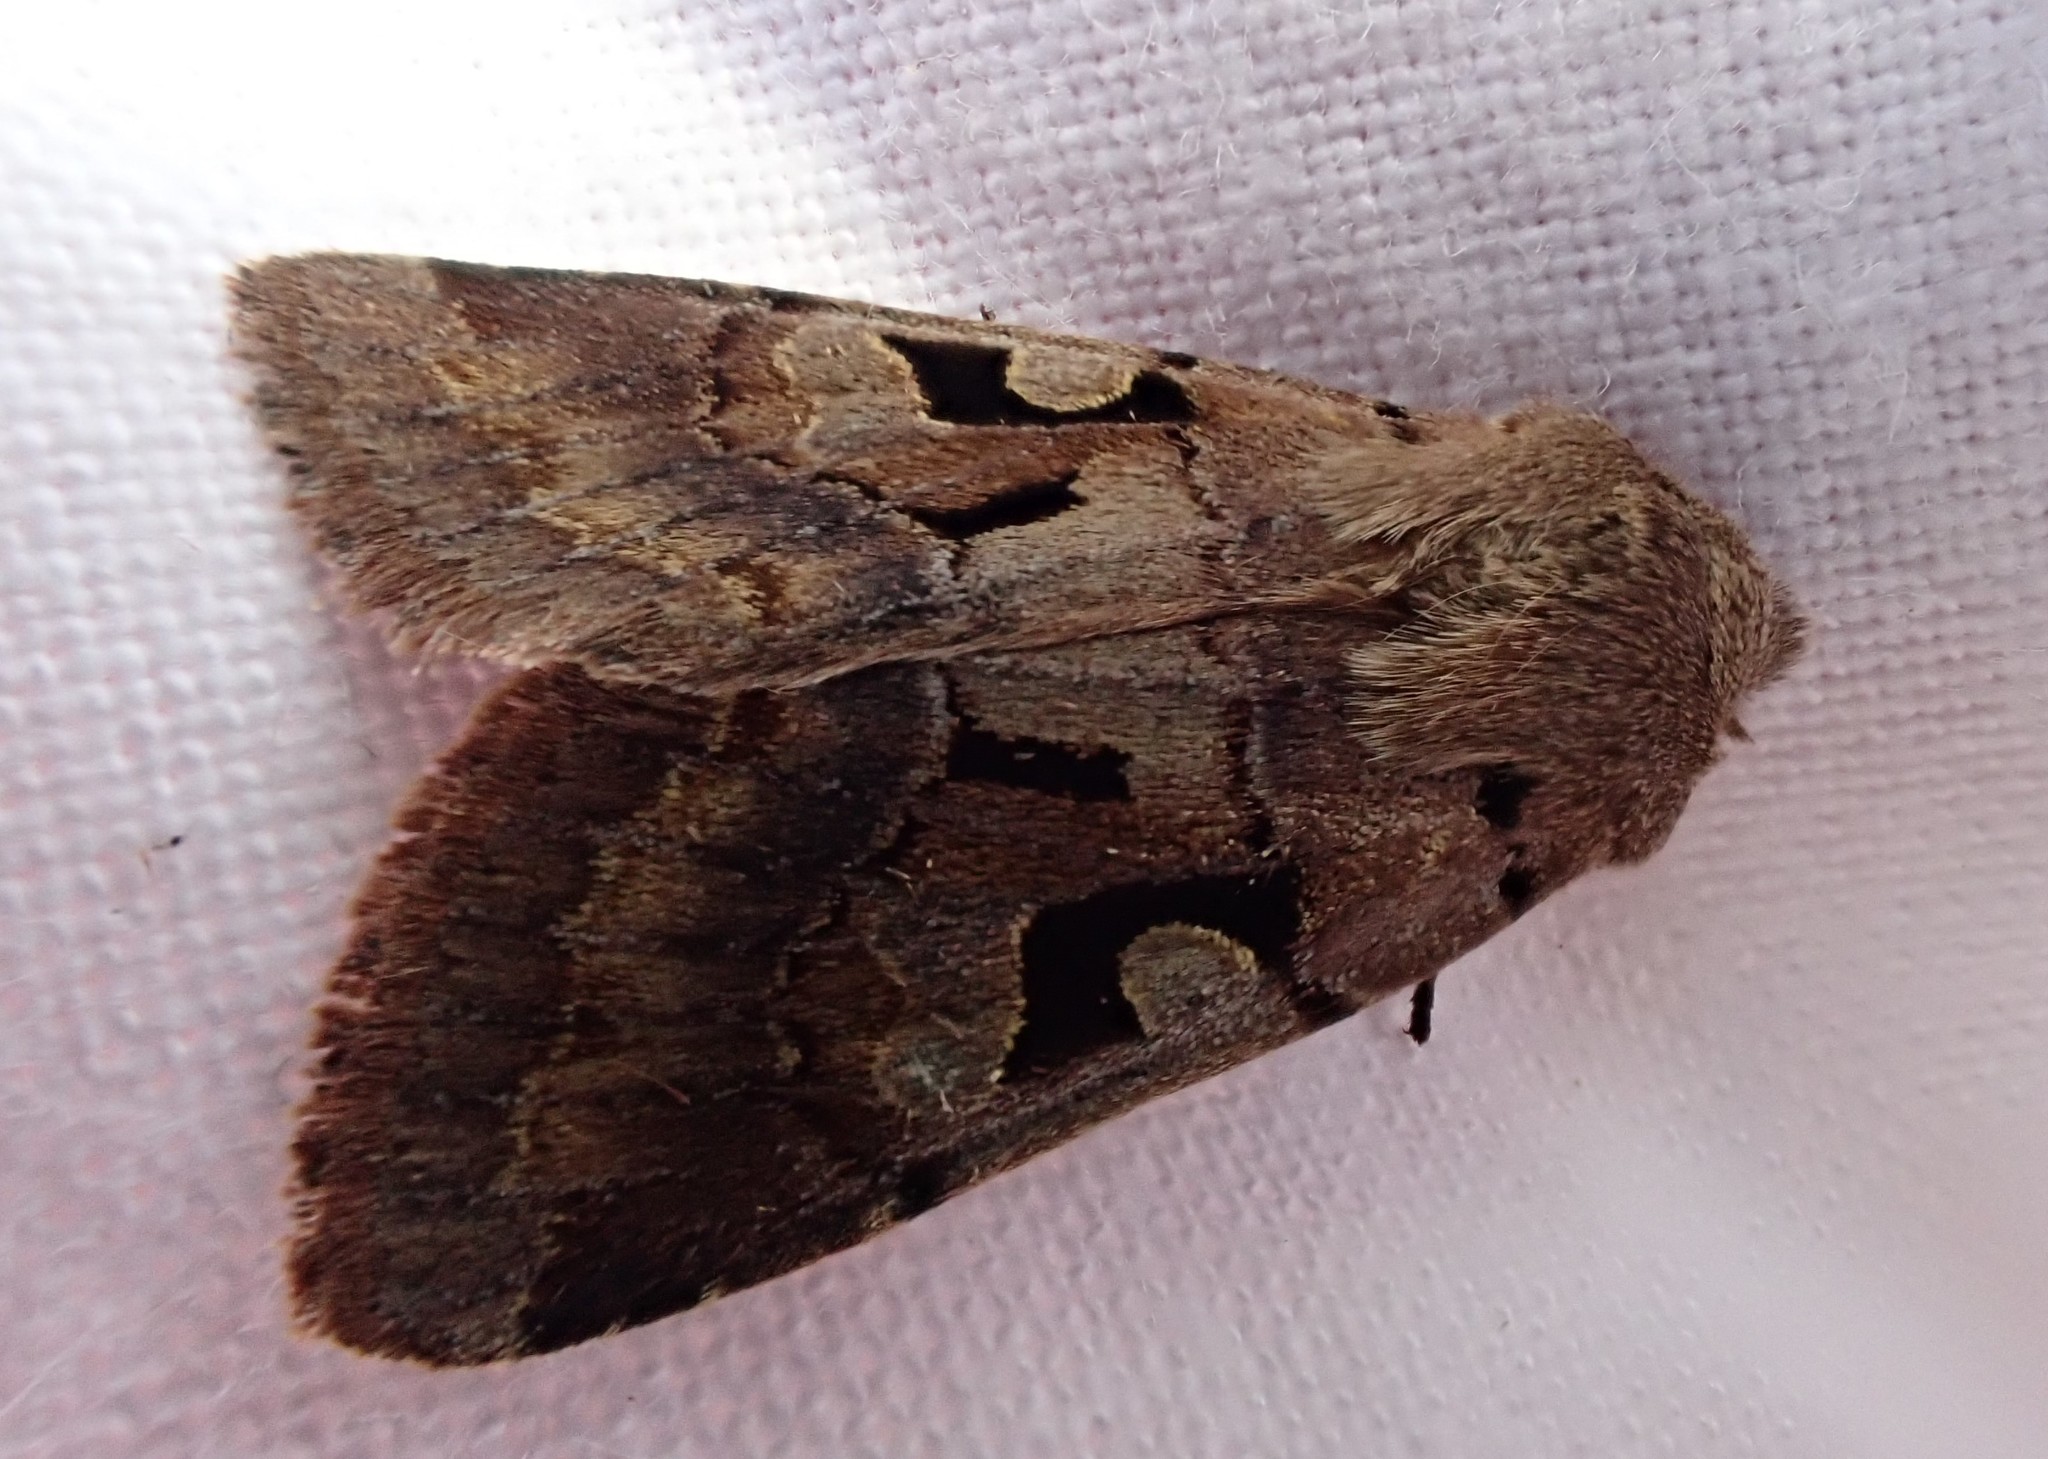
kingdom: Animalia
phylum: Arthropoda
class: Insecta
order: Lepidoptera
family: Noctuidae
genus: Orthosia
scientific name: Orthosia gothica
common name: Hebrew character
